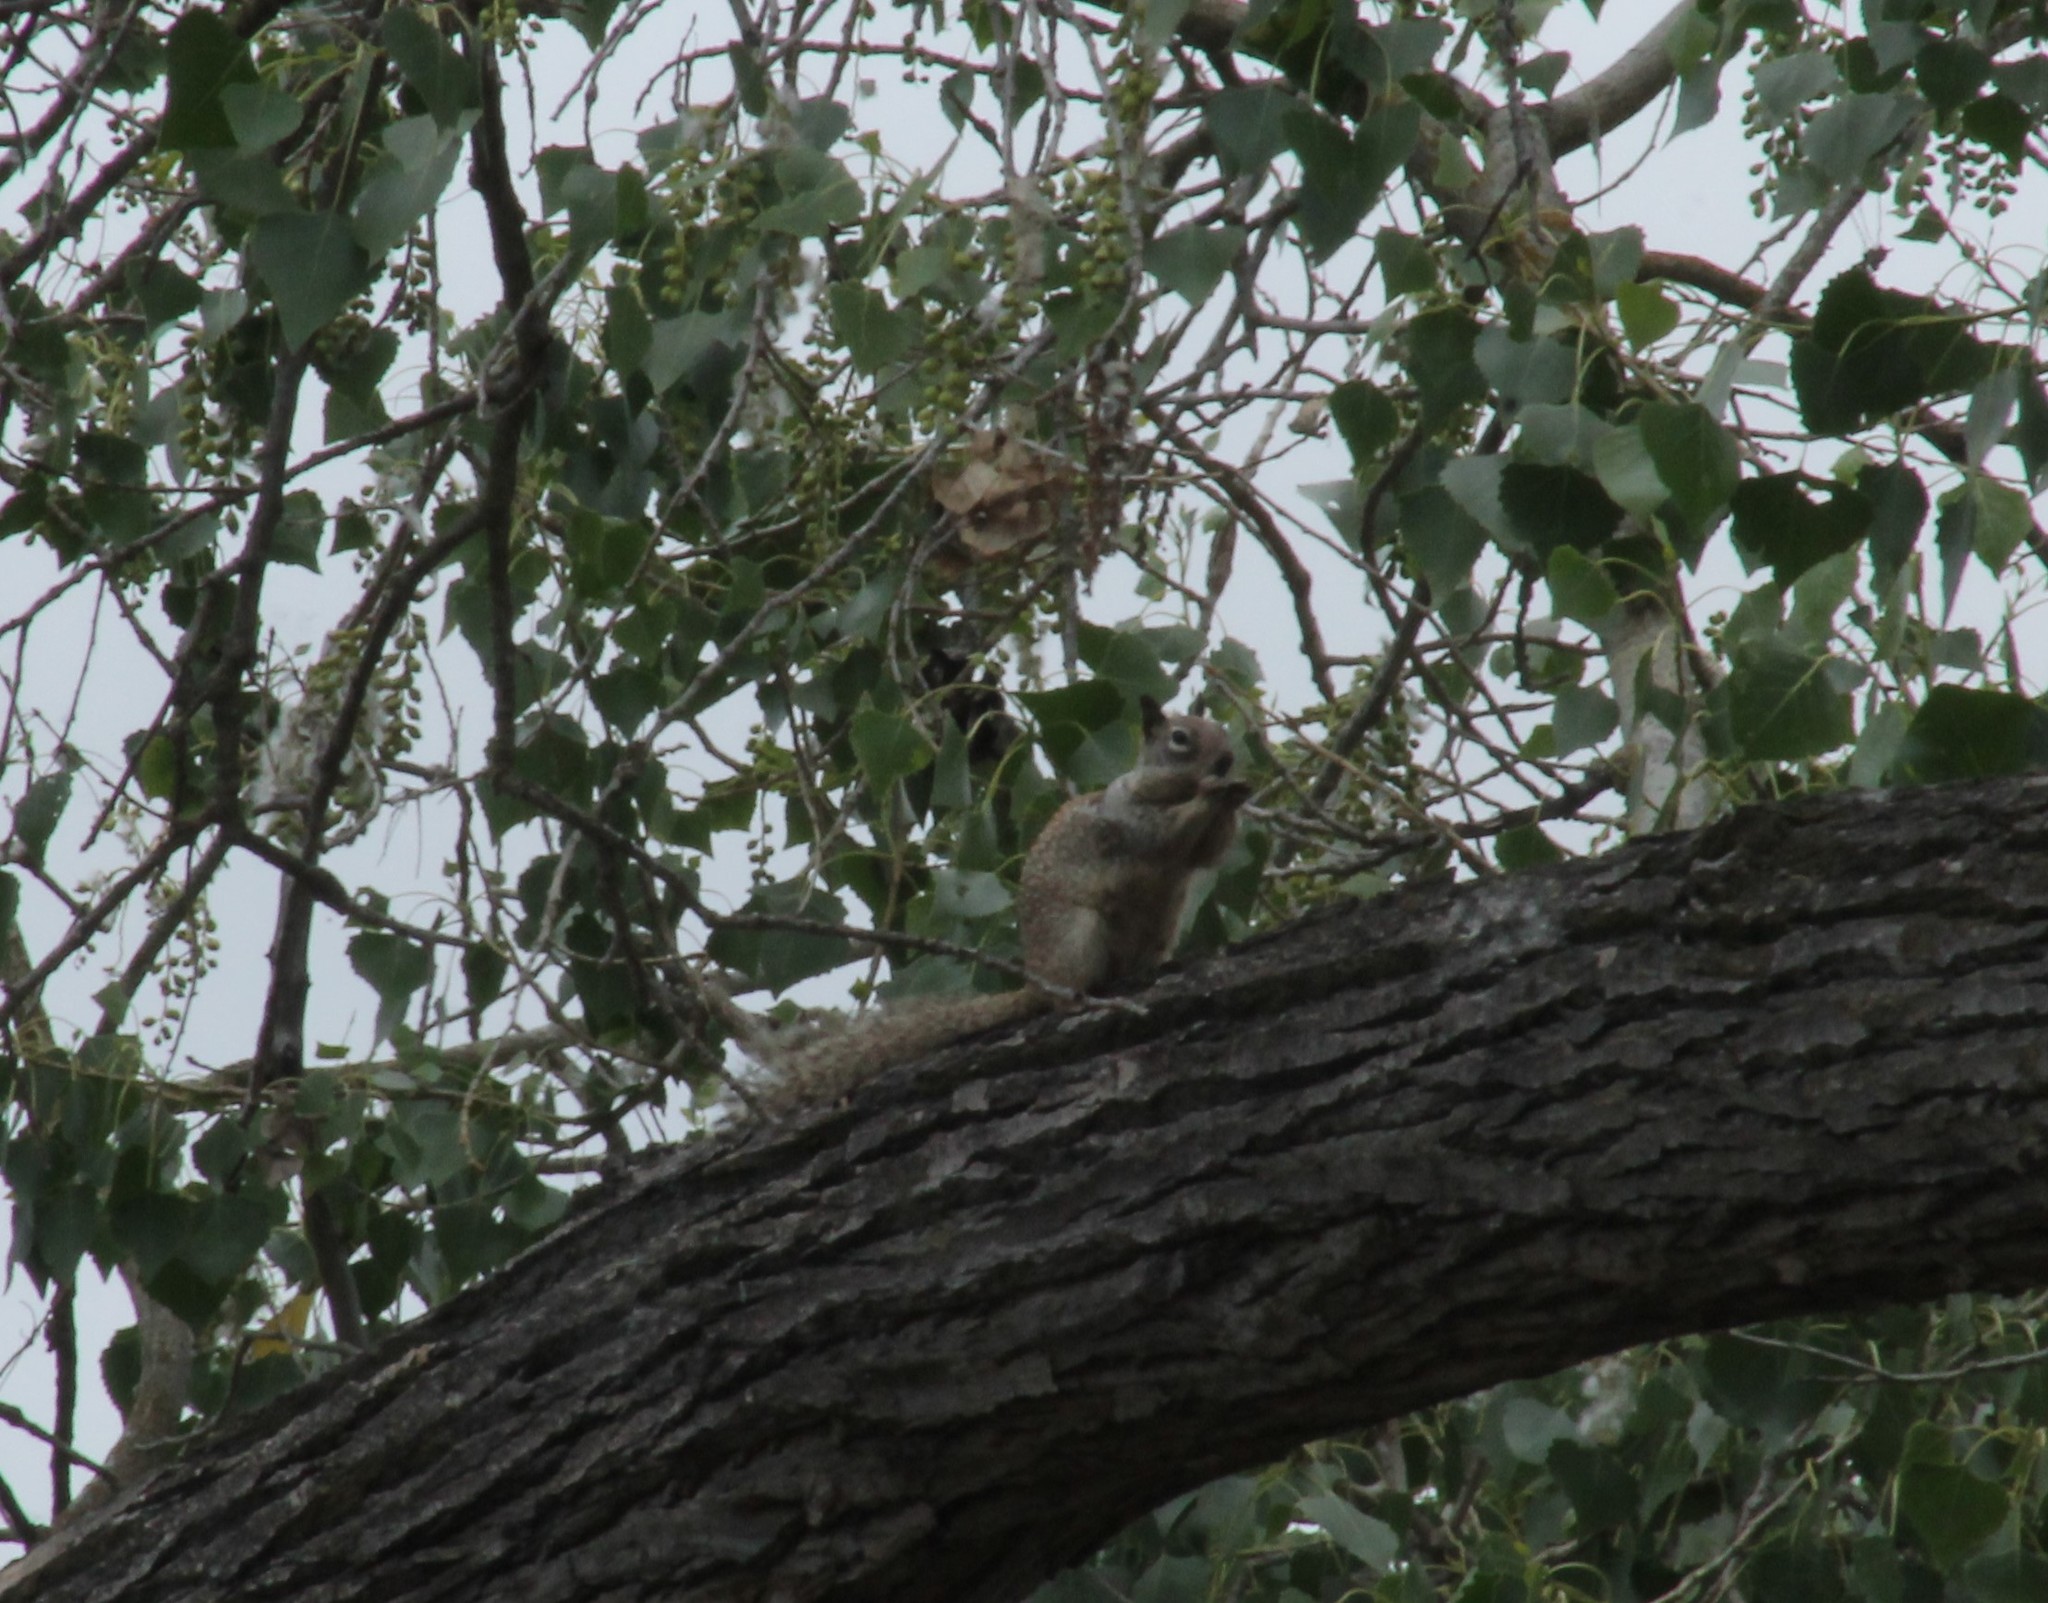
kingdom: Animalia
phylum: Chordata
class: Mammalia
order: Rodentia
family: Sciuridae
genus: Otospermophilus
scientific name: Otospermophilus beecheyi
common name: California ground squirrel
